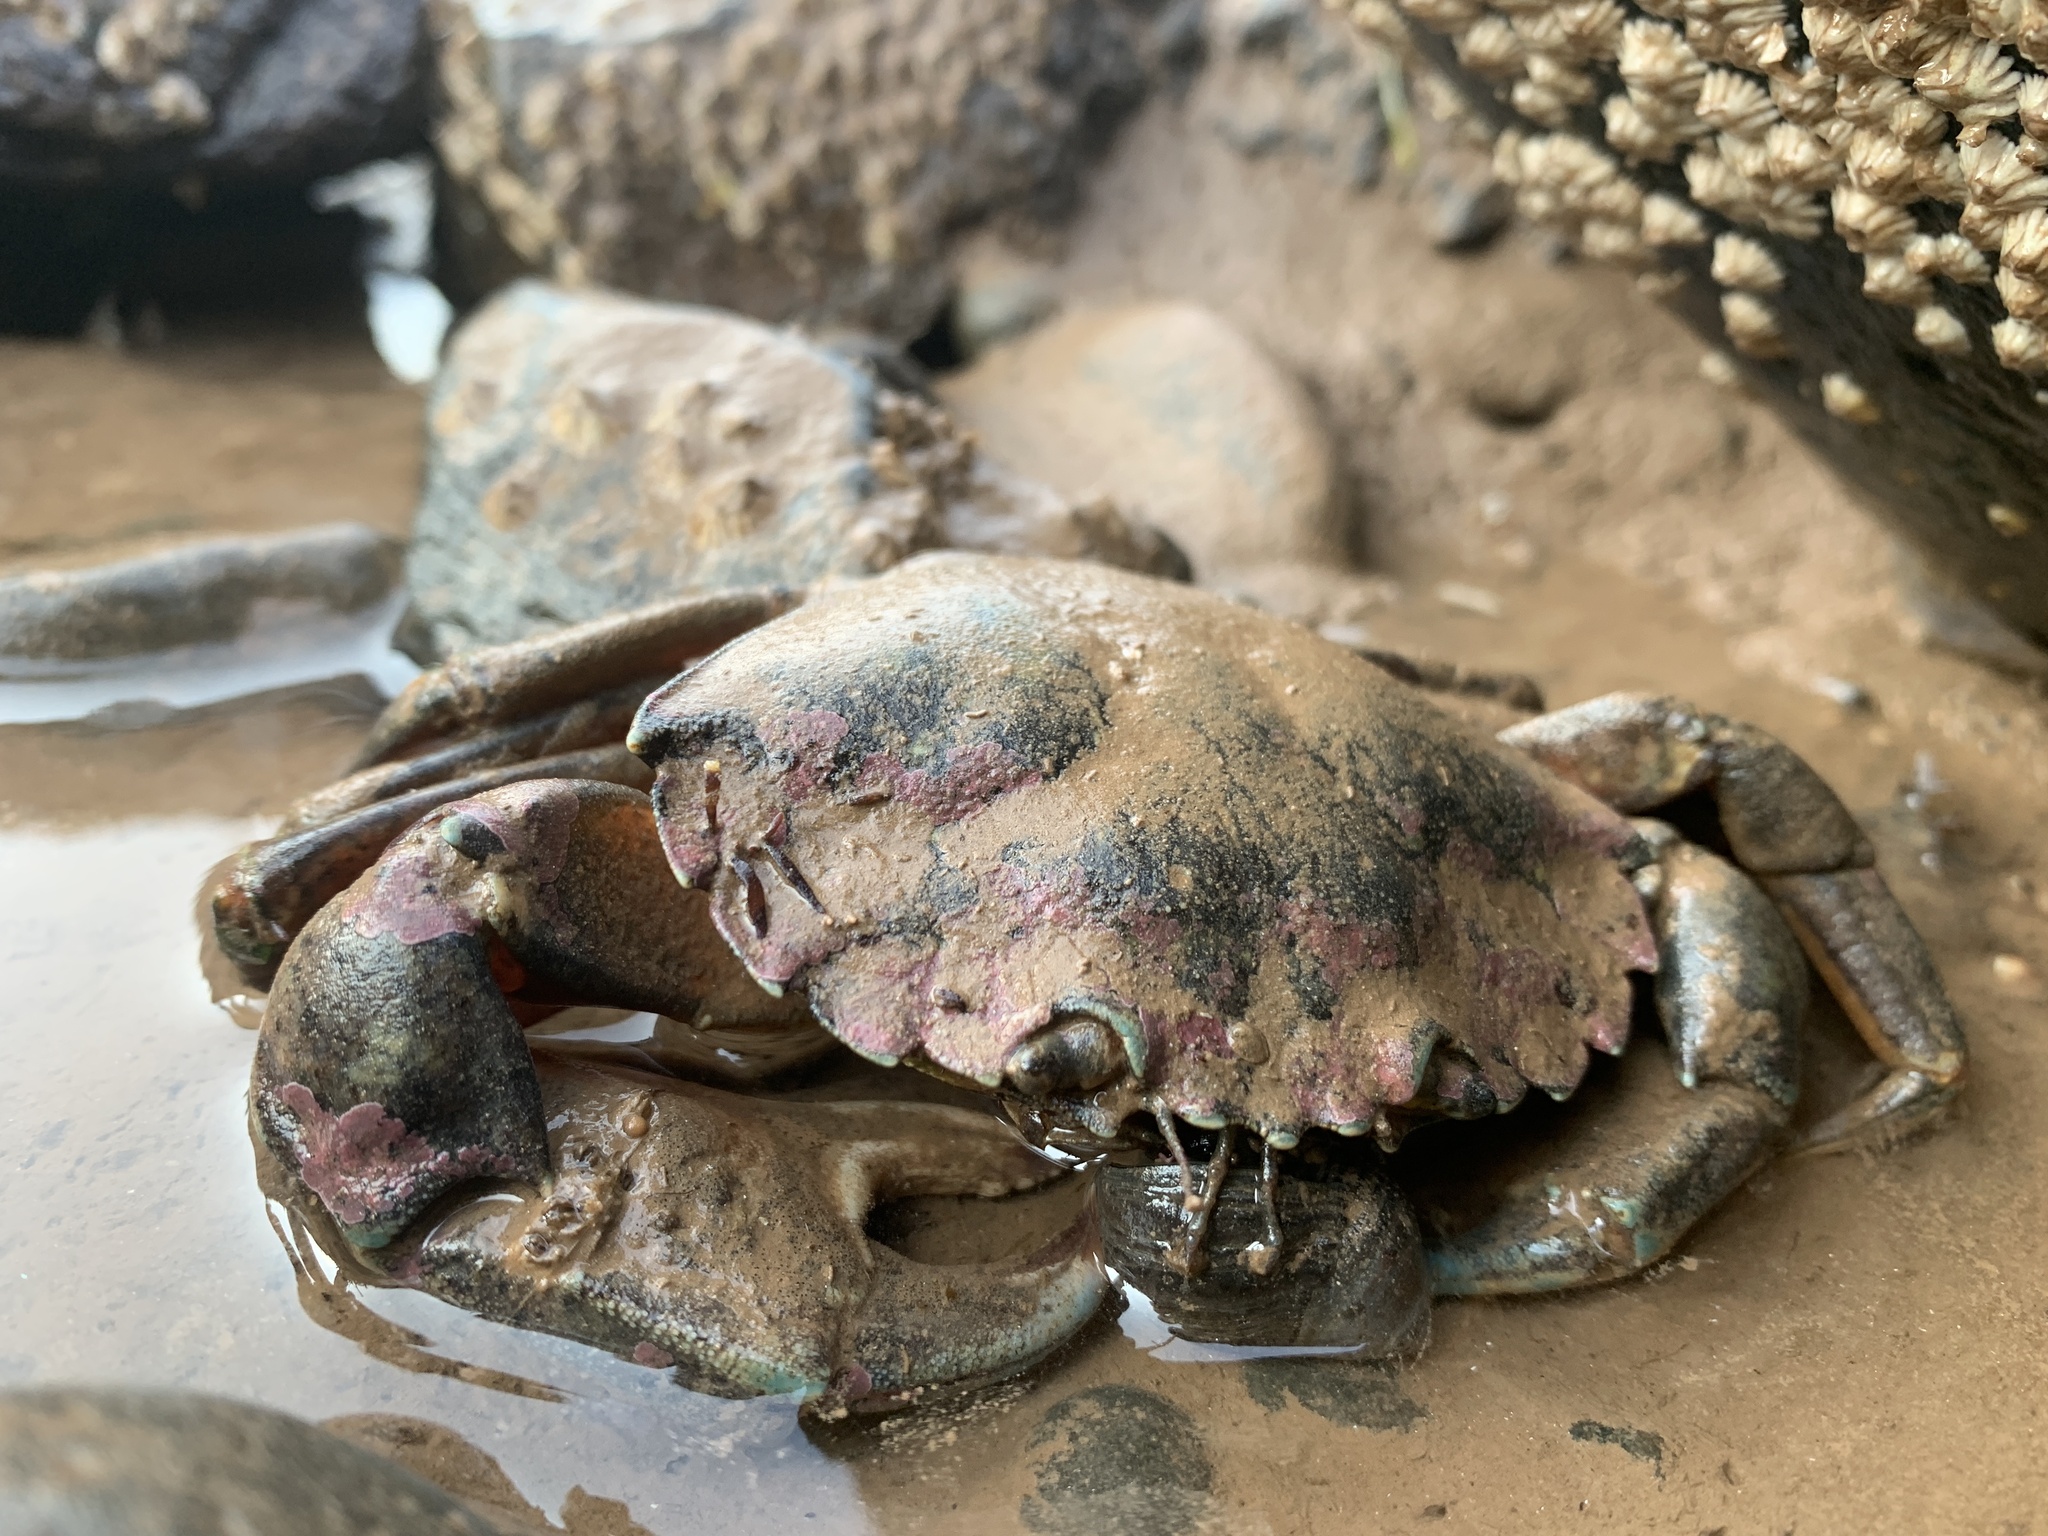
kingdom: Animalia
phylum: Arthropoda
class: Malacostraca
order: Decapoda
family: Carcinidae
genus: Carcinus
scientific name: Carcinus maenas
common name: European green crab
